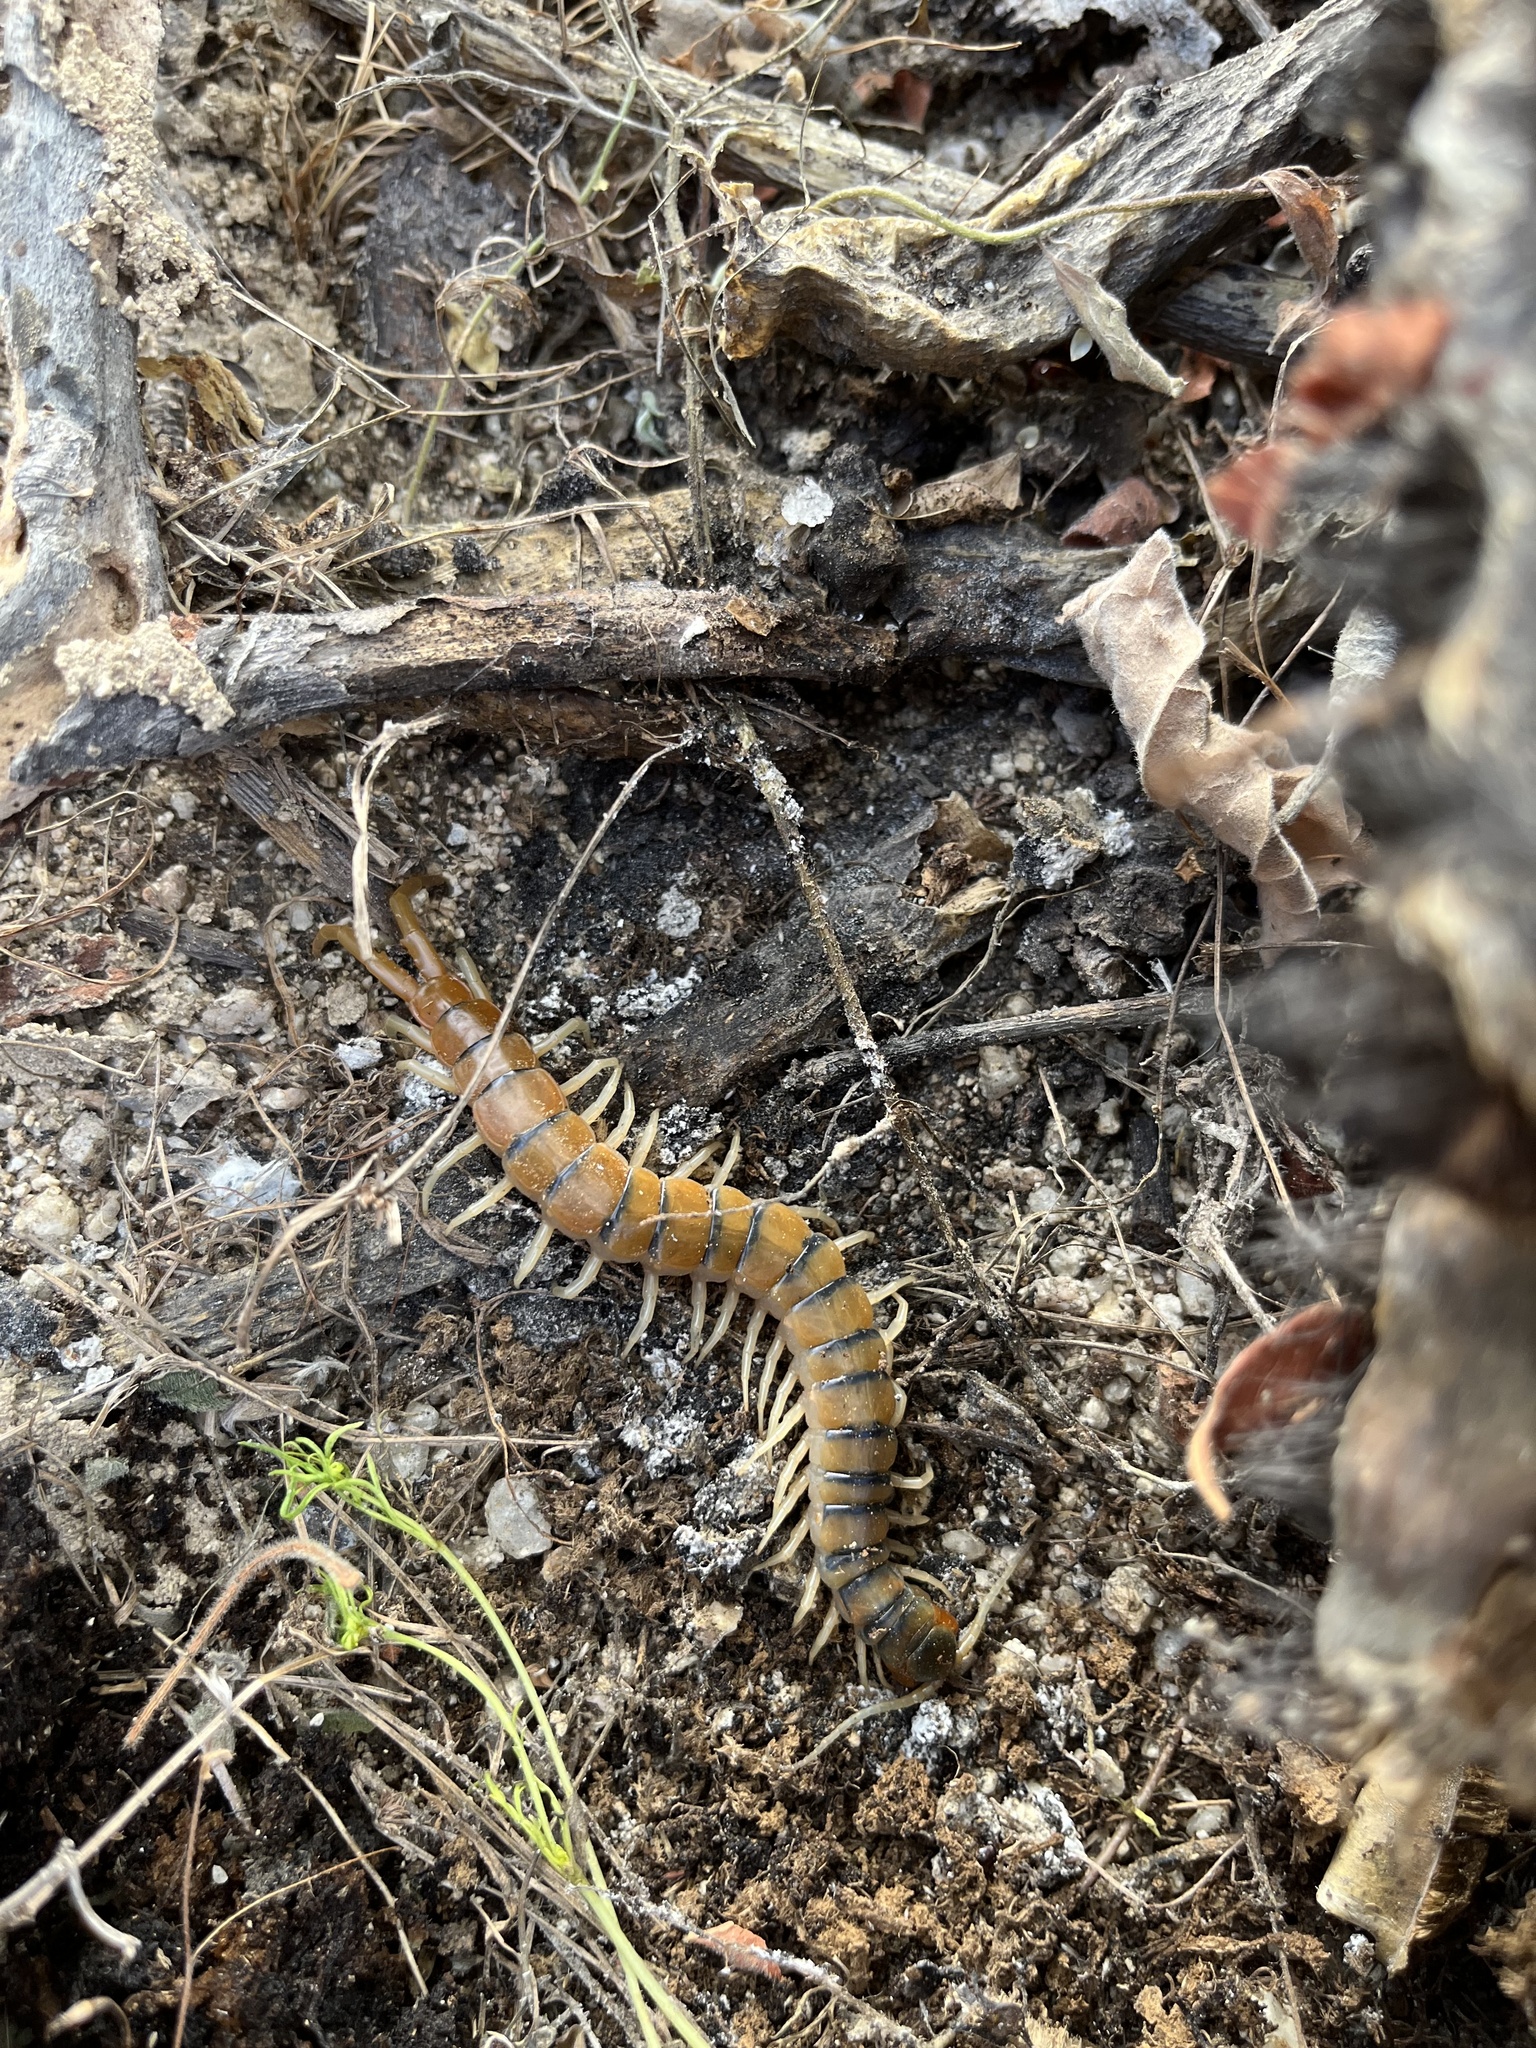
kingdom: Animalia
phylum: Arthropoda
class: Chilopoda
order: Scolopendromorpha
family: Scolopendridae
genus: Scolopendra
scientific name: Scolopendra polymorpha
